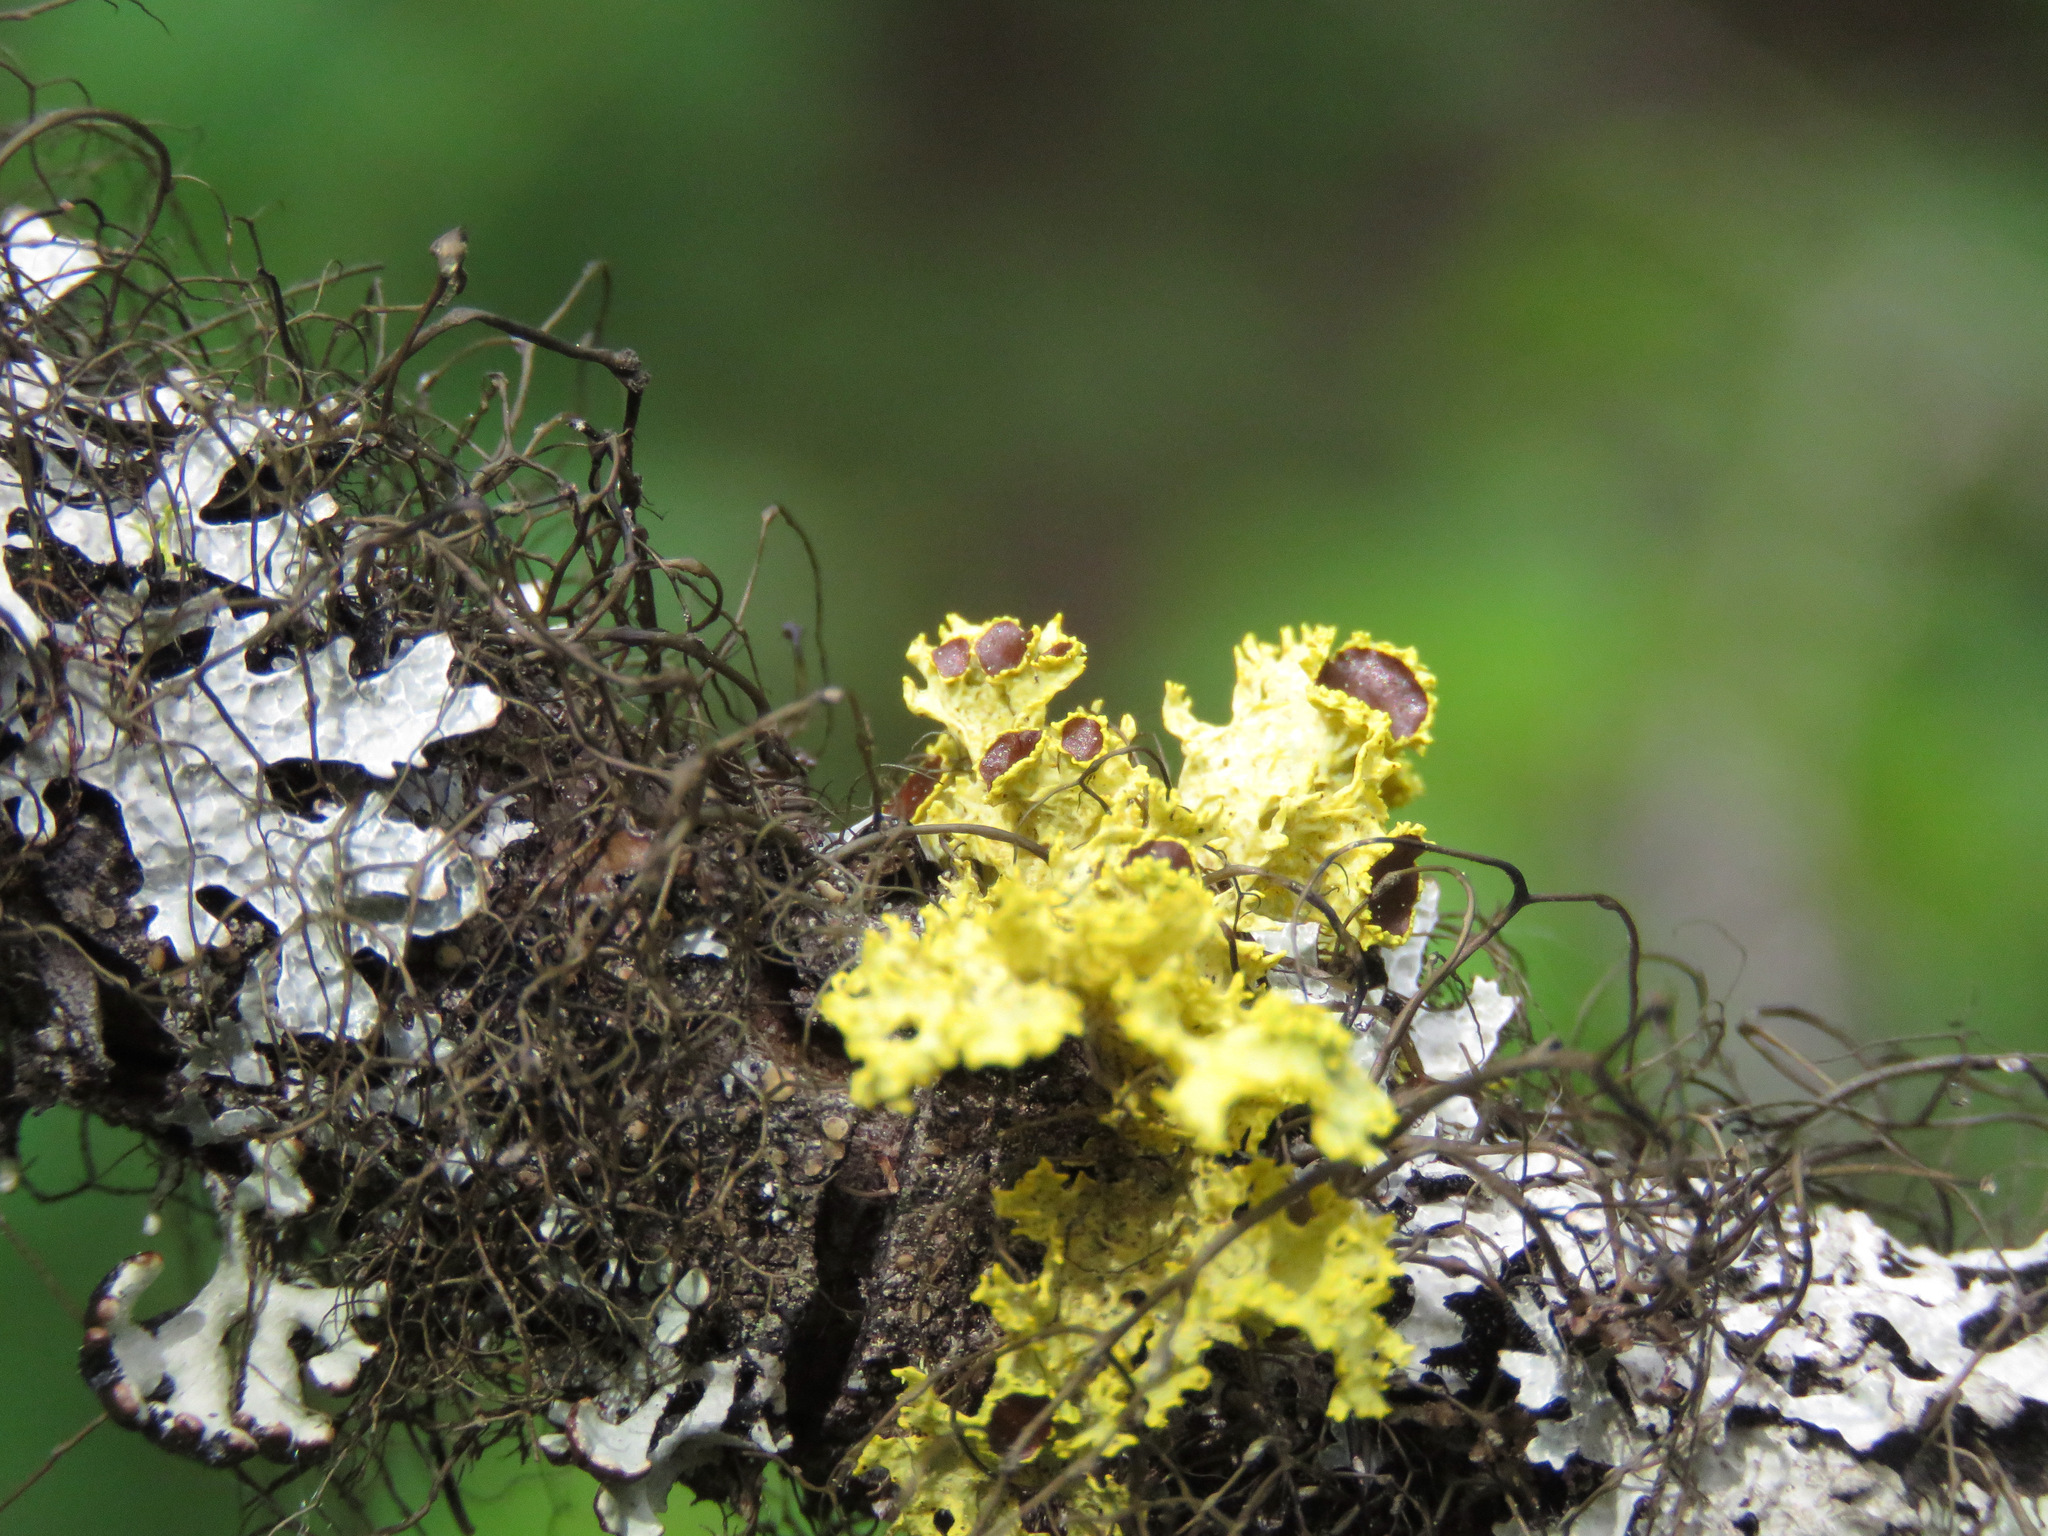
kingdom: Fungi
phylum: Ascomycota
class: Lecanoromycetes
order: Lecanorales
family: Parmeliaceae
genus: Vulpicida
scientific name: Vulpicida canadensis
